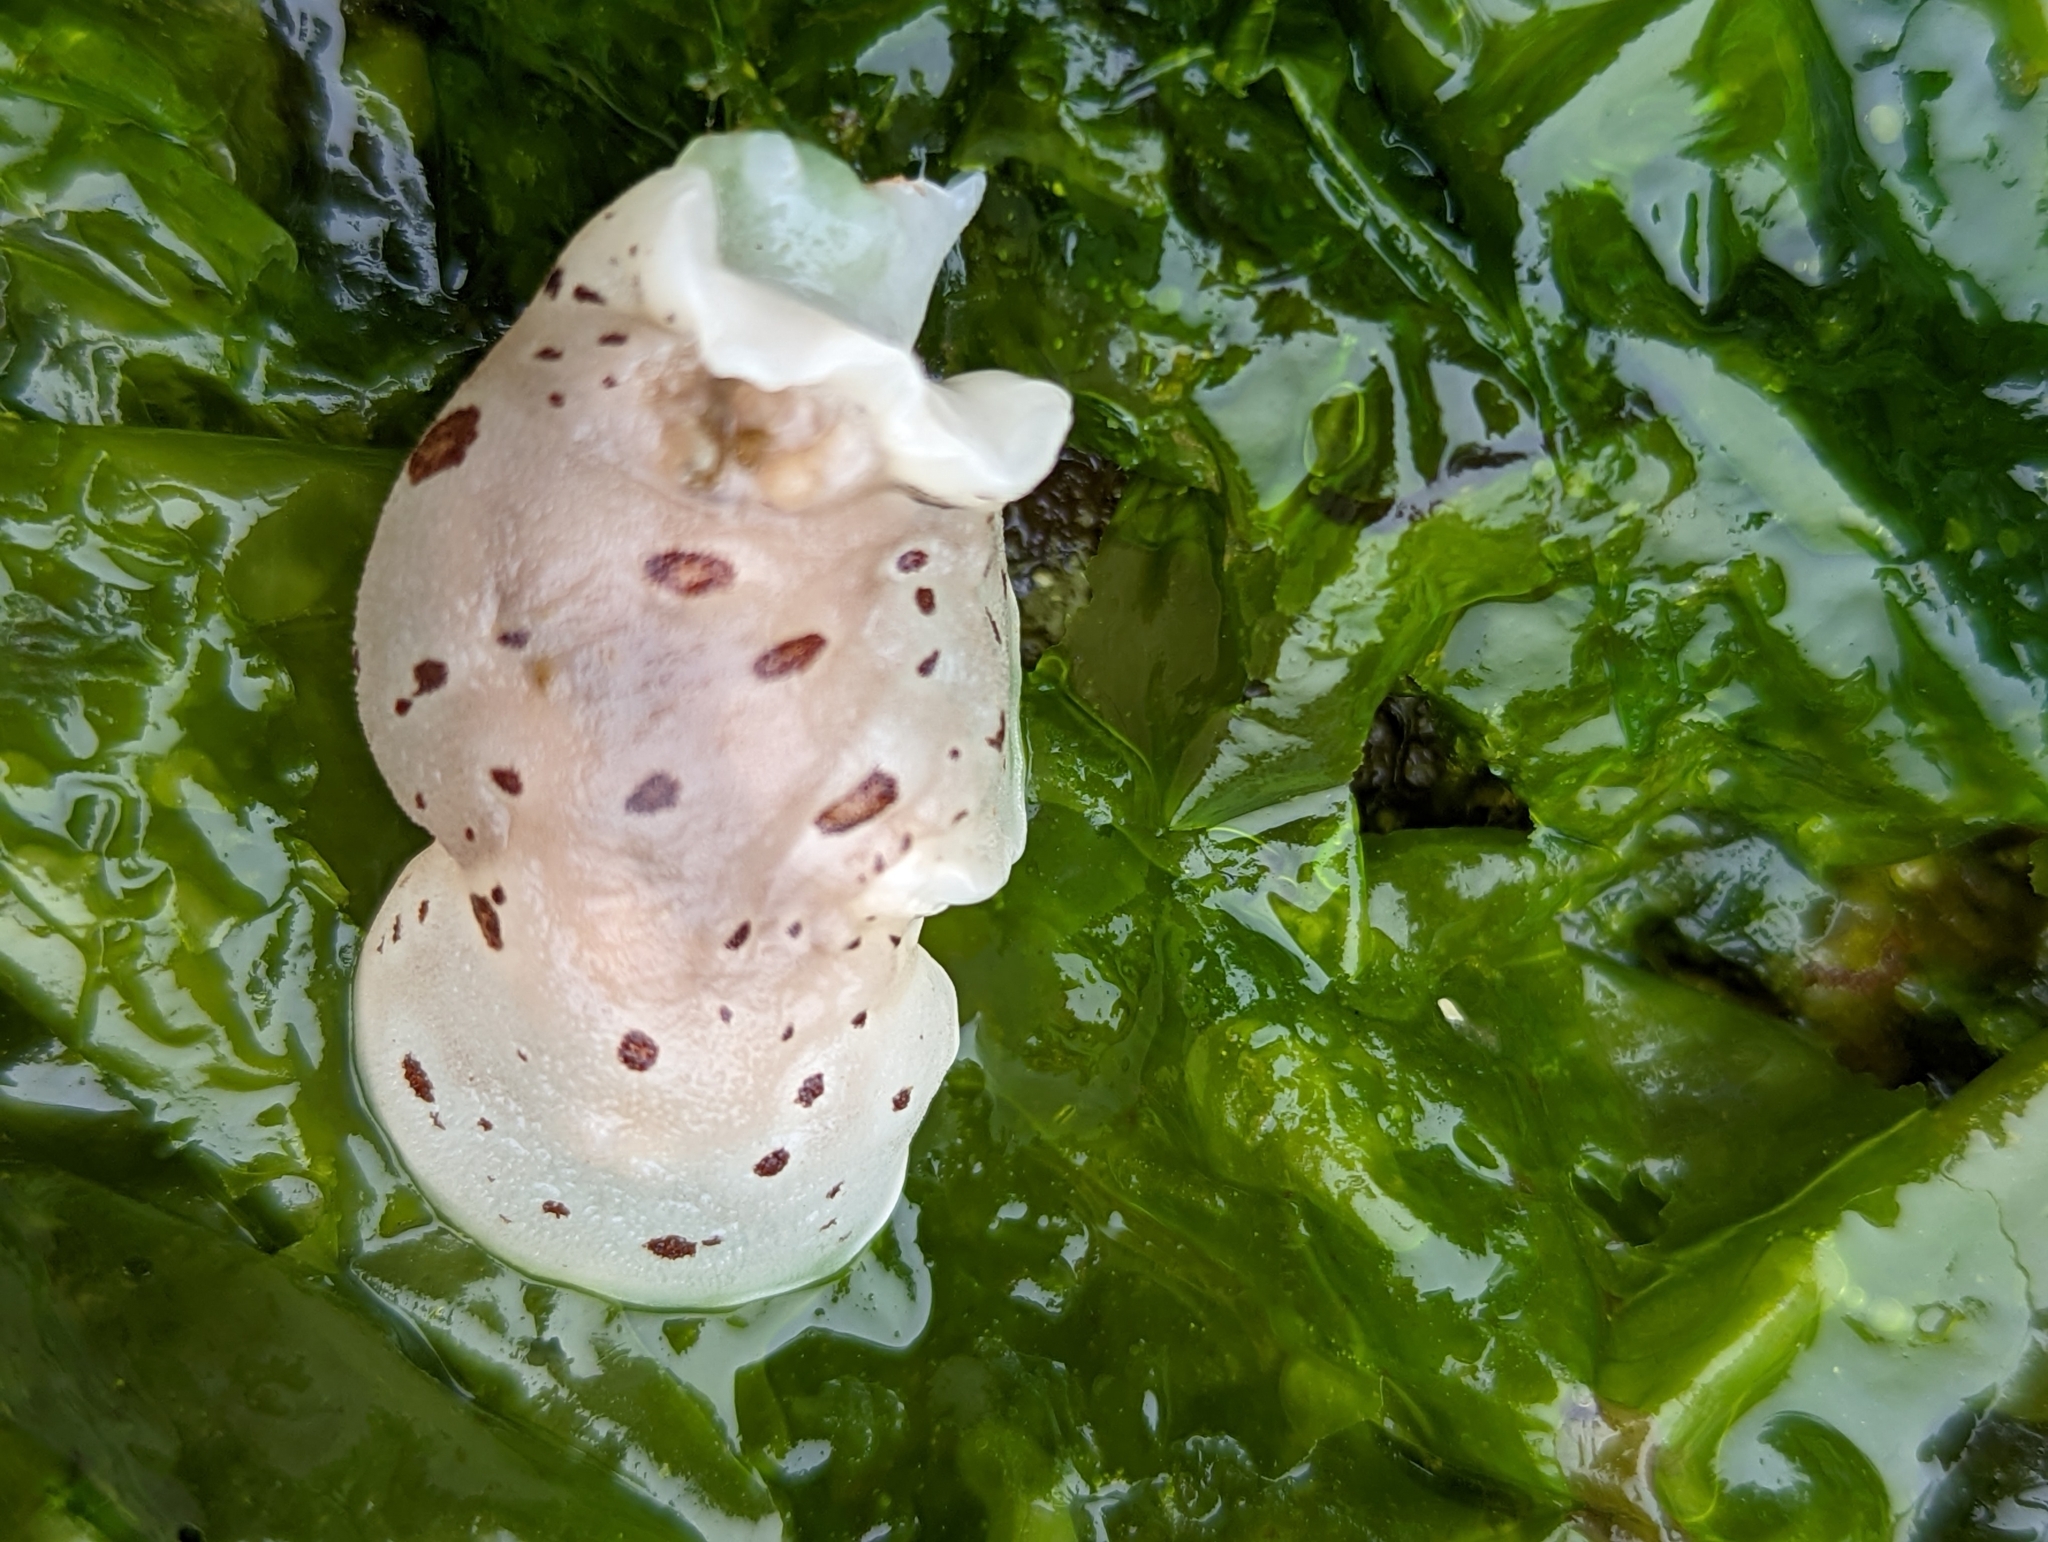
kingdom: Animalia
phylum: Mollusca
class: Gastropoda
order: Nudibranchia
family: Discodorididae
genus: Diaulula
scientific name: Diaulula odonoghuei
